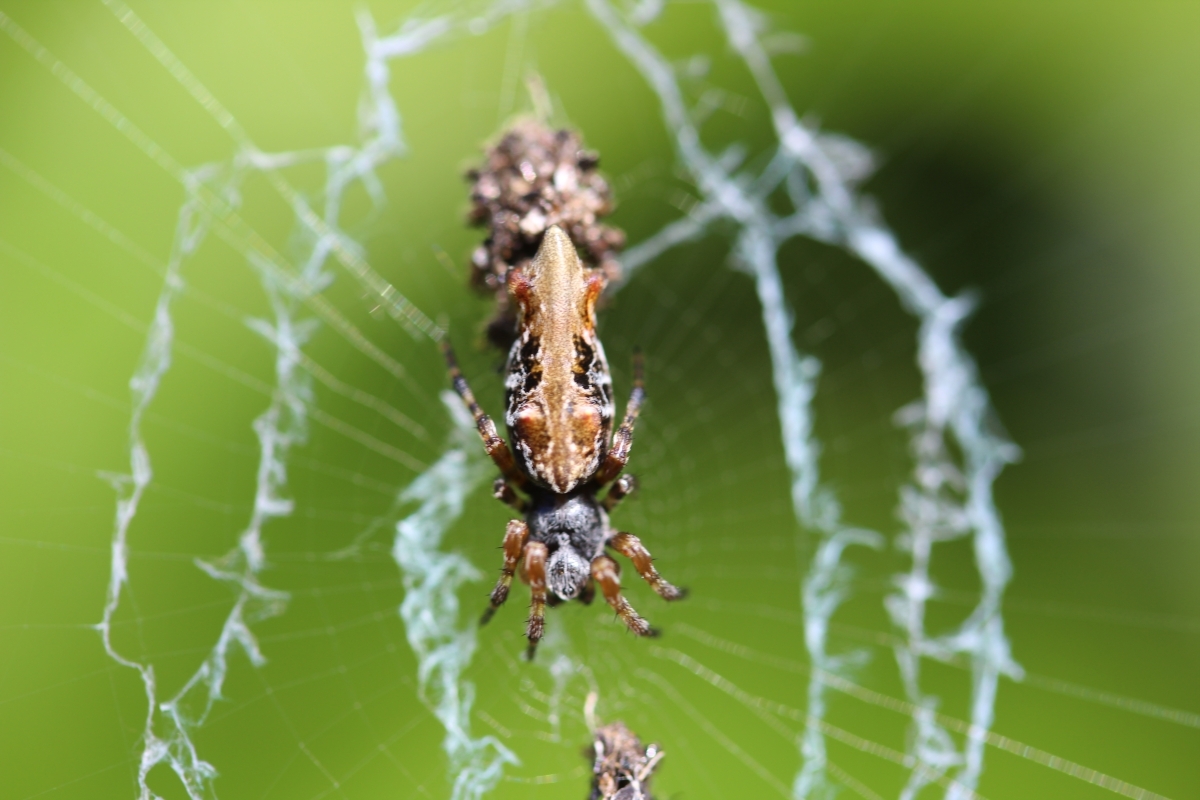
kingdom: Animalia
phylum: Arthropoda
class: Arachnida
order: Araneae
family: Araneidae
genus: Cyclosa
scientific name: Cyclosa bifurcata
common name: Orb weavers
